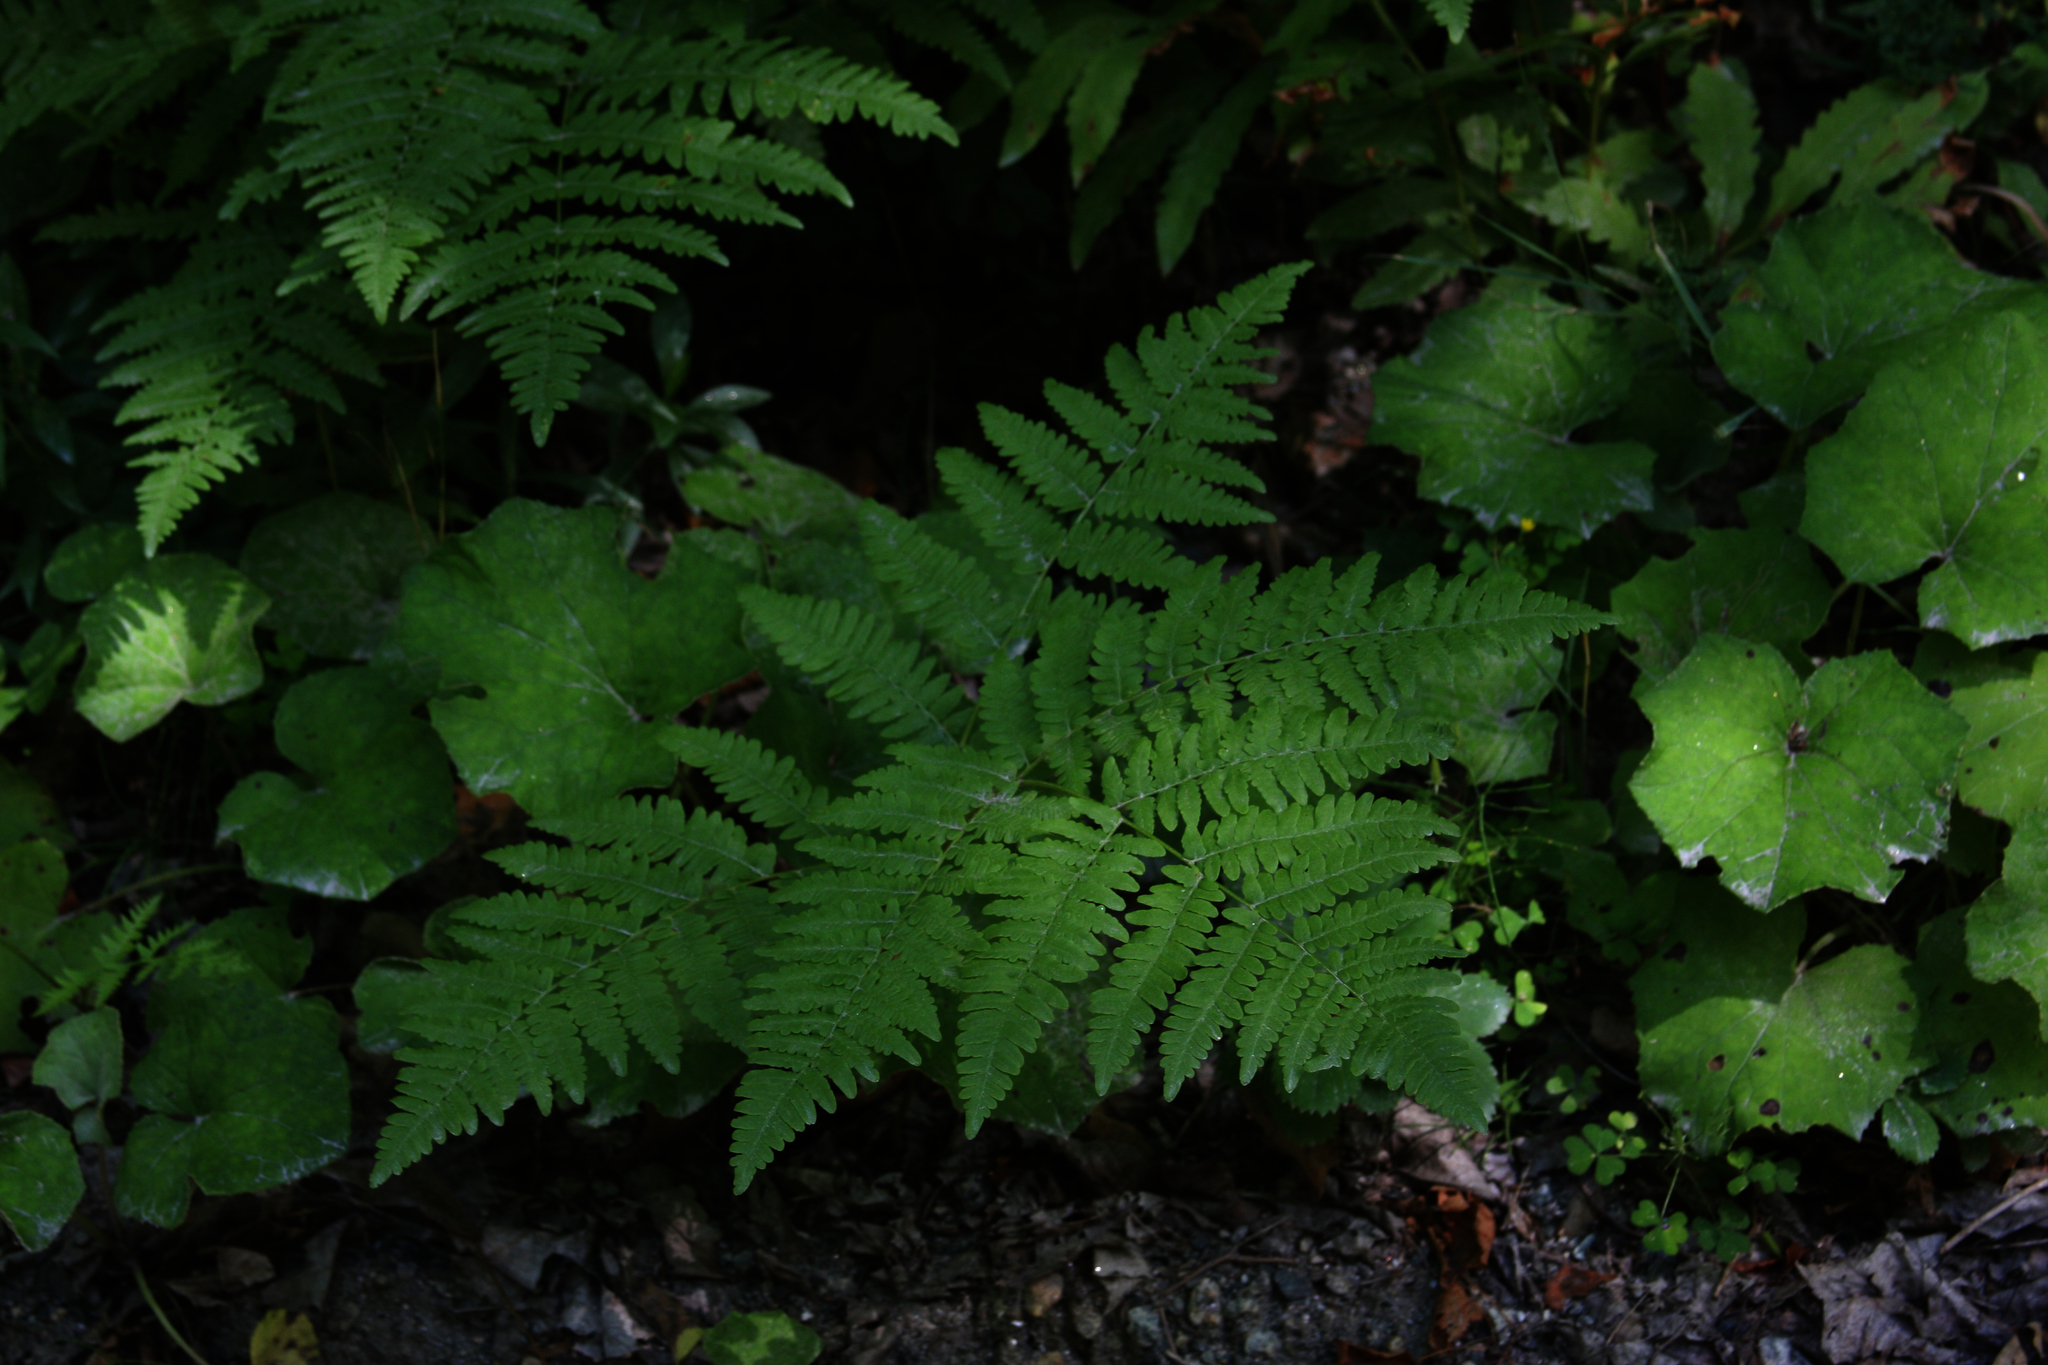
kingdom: Plantae
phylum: Tracheophyta
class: Magnoliopsida
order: Asterales
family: Asteraceae
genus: Tussilago
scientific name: Tussilago farfara
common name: Coltsfoot
